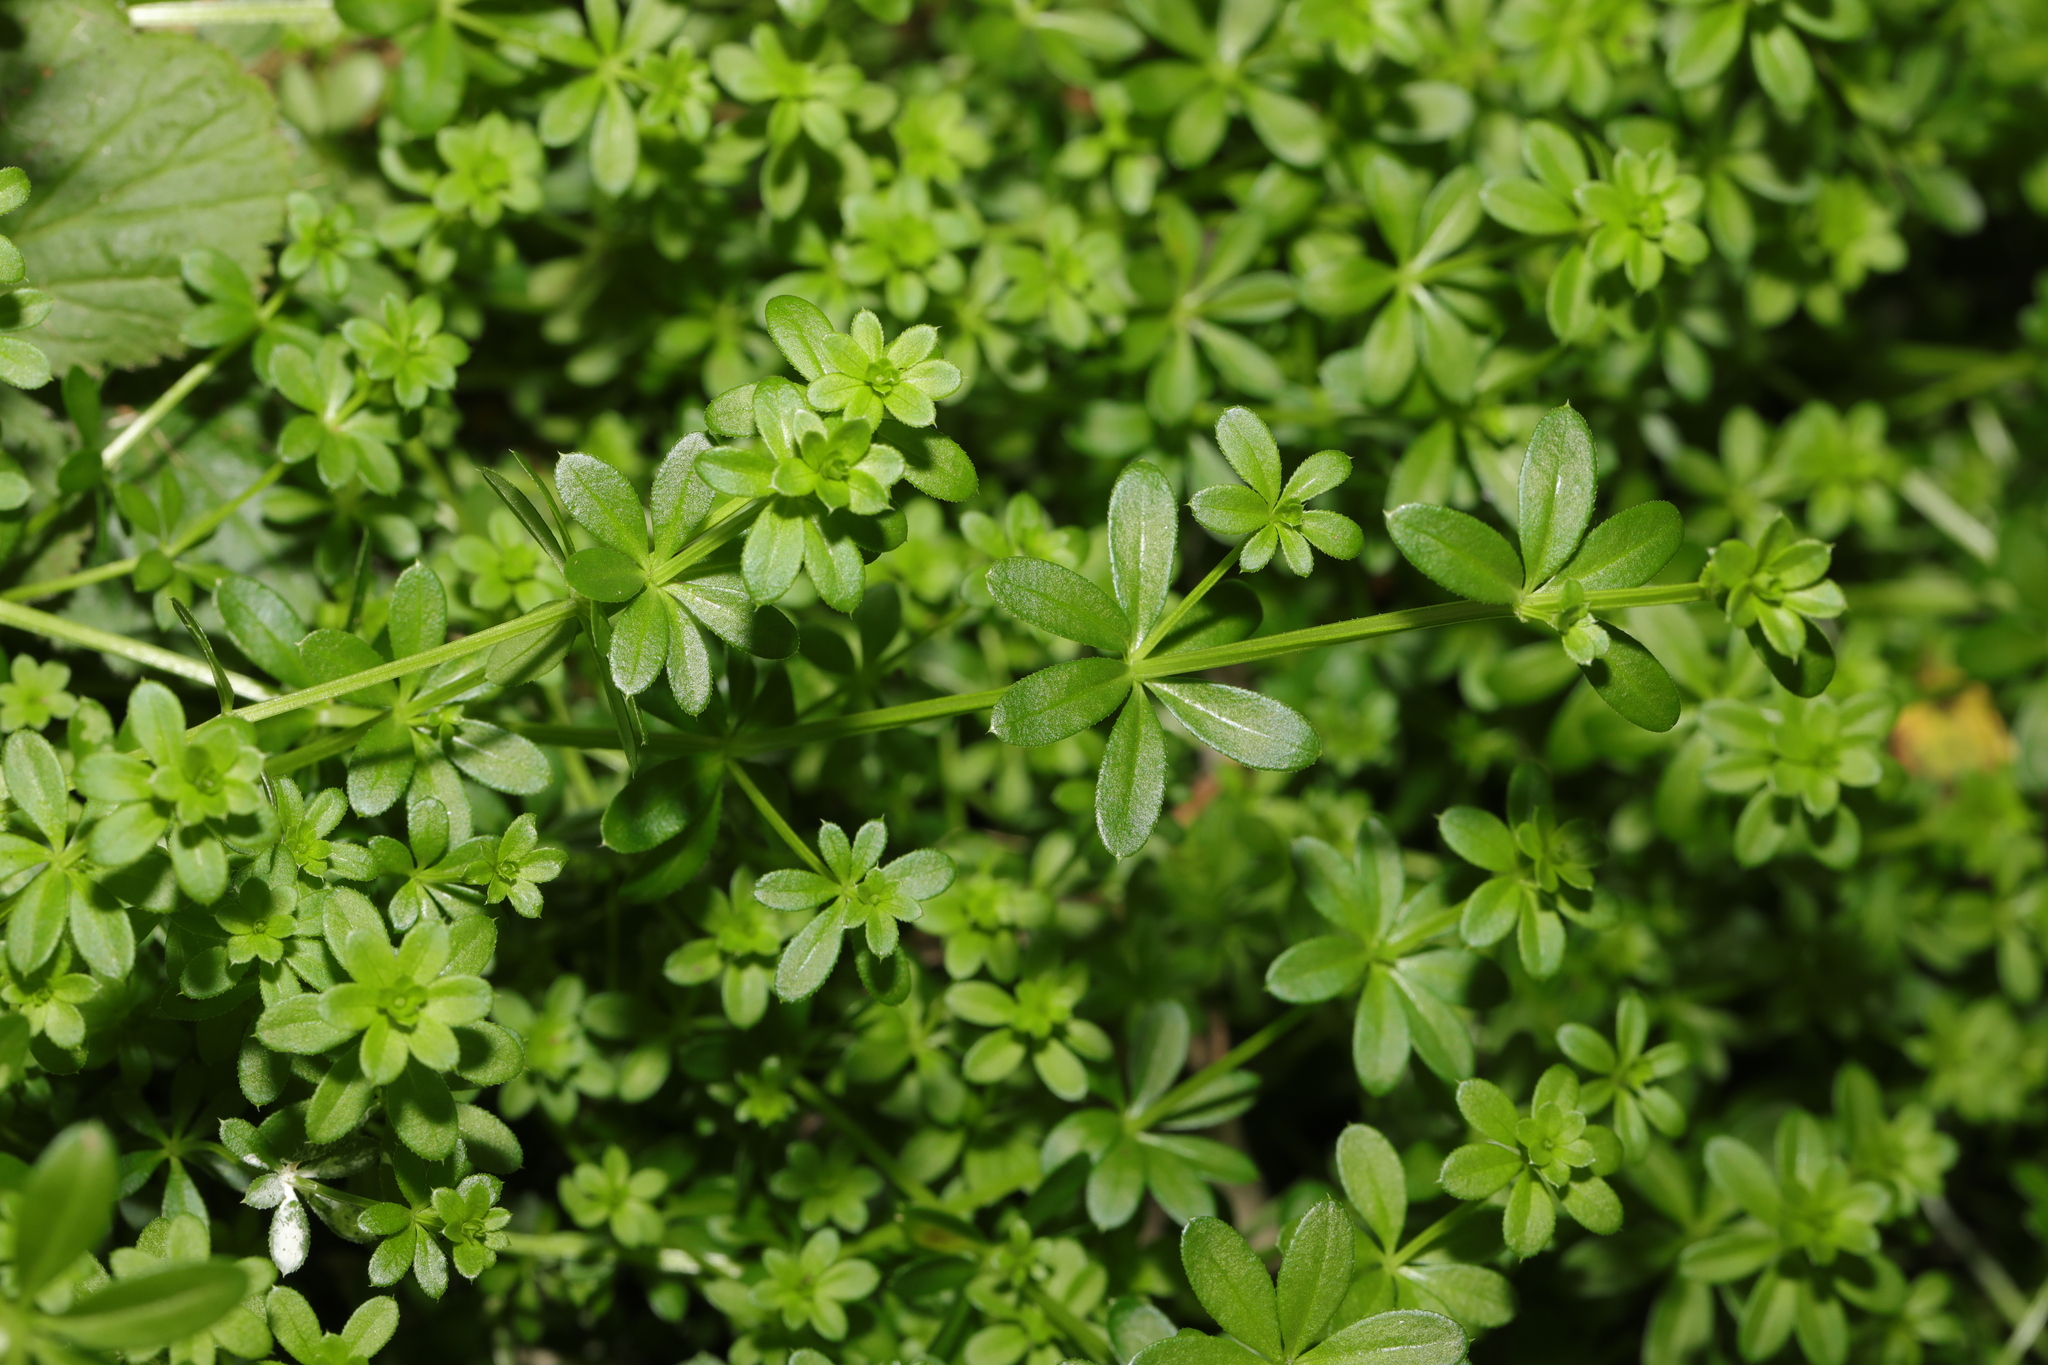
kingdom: Plantae
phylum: Tracheophyta
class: Magnoliopsida
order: Gentianales
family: Rubiaceae
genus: Galium
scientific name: Galium aparine
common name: Cleavers
